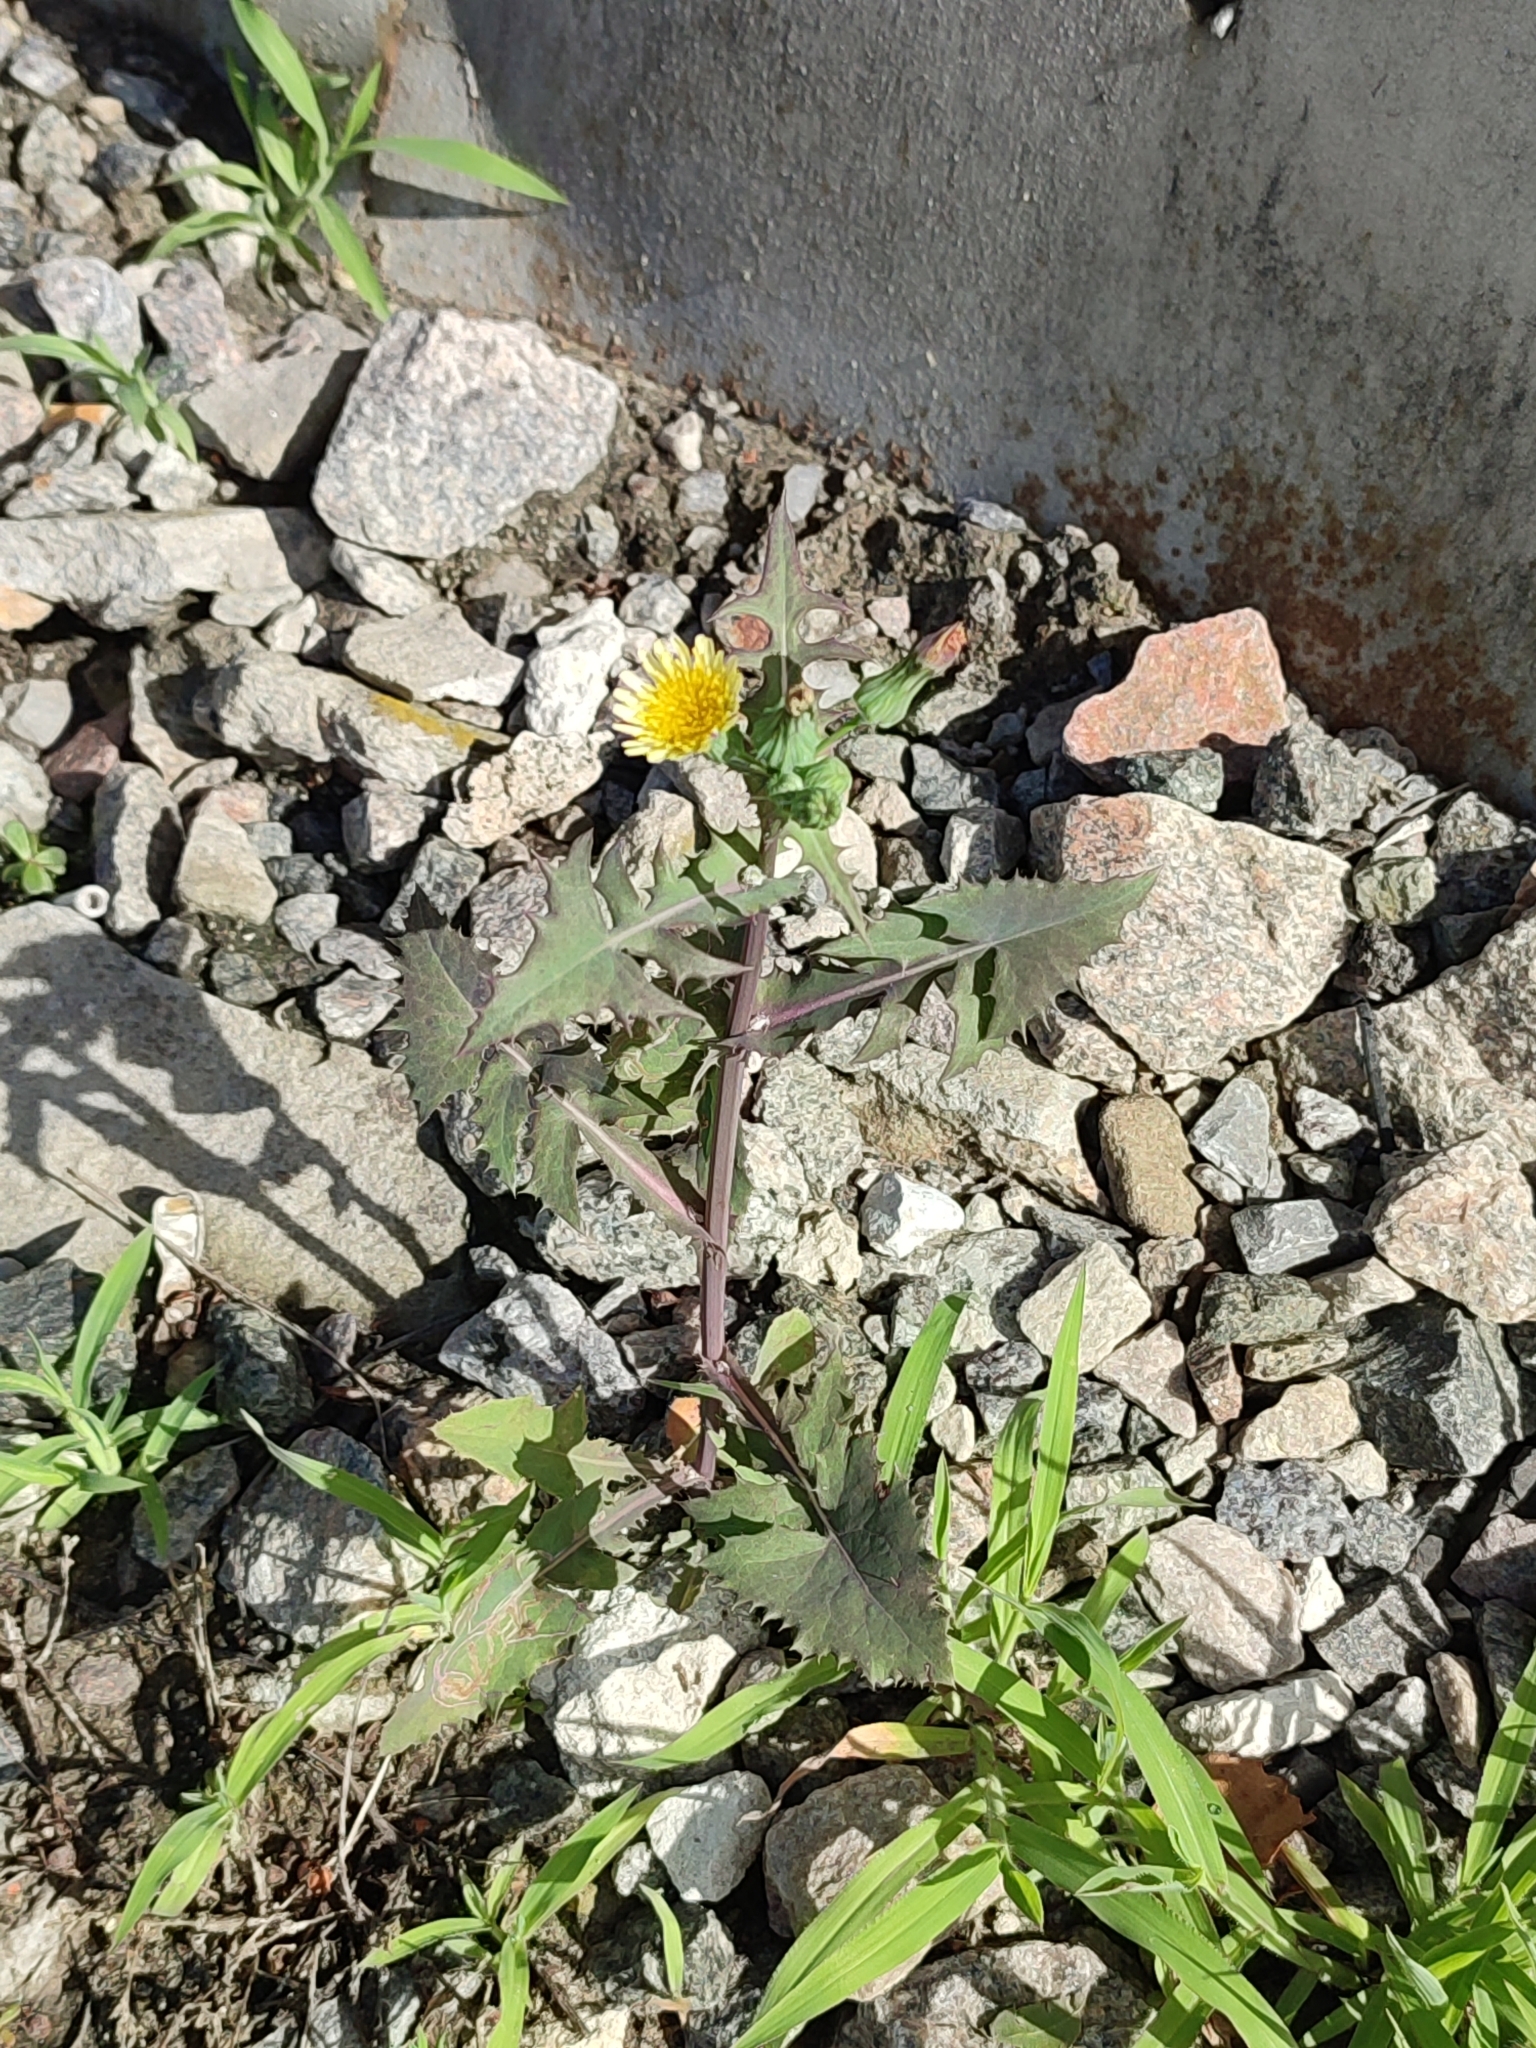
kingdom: Plantae
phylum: Tracheophyta
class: Magnoliopsida
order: Asterales
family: Asteraceae
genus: Sonchus
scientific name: Sonchus oleraceus
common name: Common sowthistle
